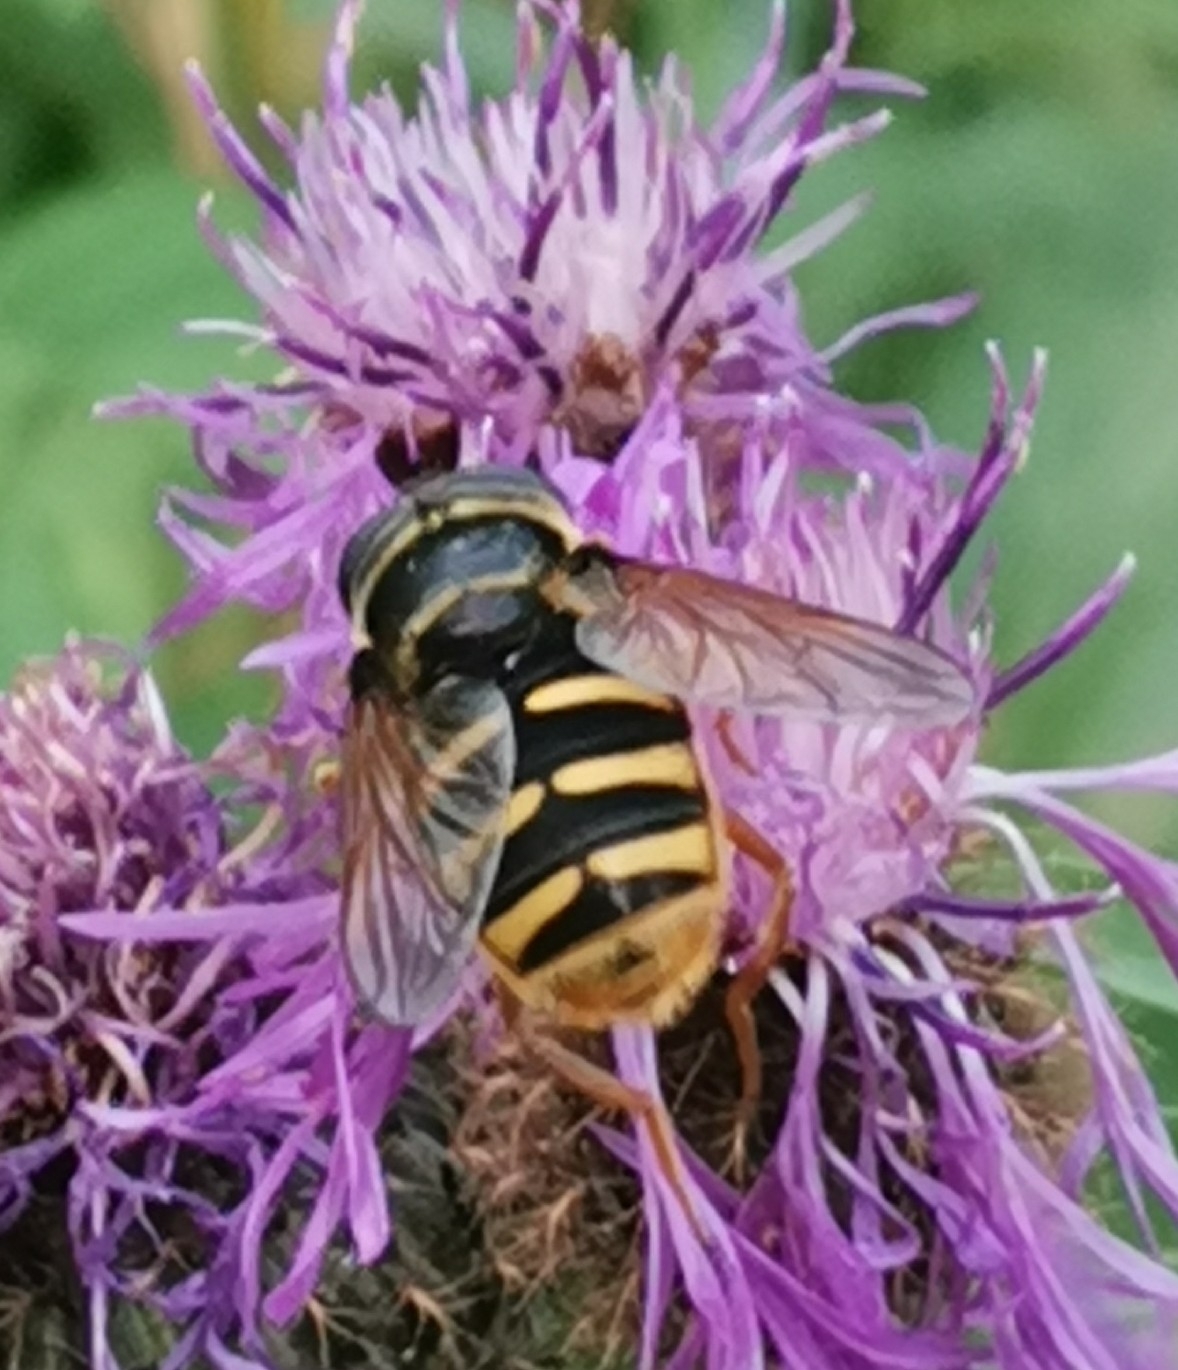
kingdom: Animalia
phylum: Arthropoda
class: Insecta
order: Diptera
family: Syrphidae
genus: Sericomyia
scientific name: Sericomyia silentis
